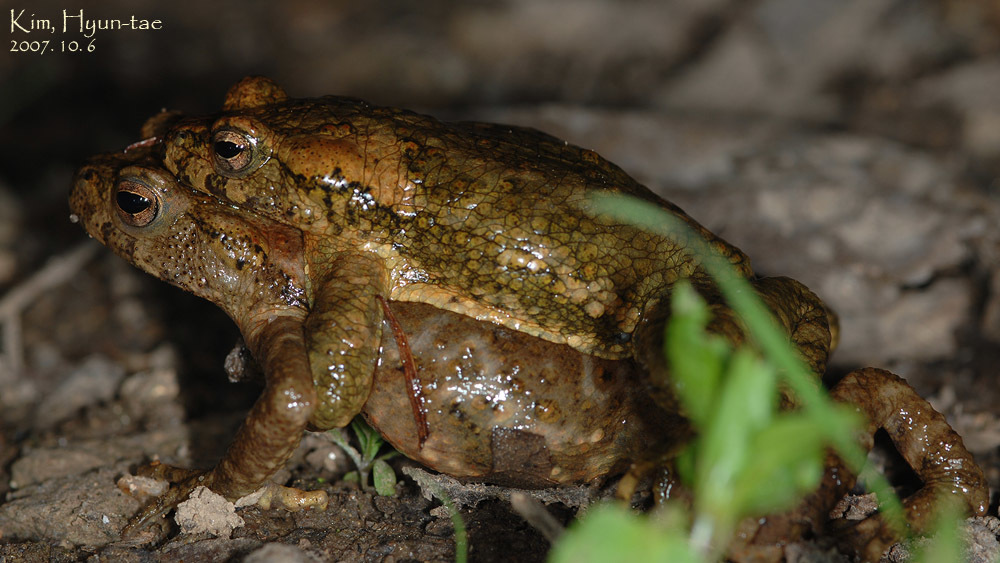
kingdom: Animalia
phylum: Chordata
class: Amphibia
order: Anura
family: Bufonidae
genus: Bufo
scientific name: Bufo stejnegeri
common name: Water toad
